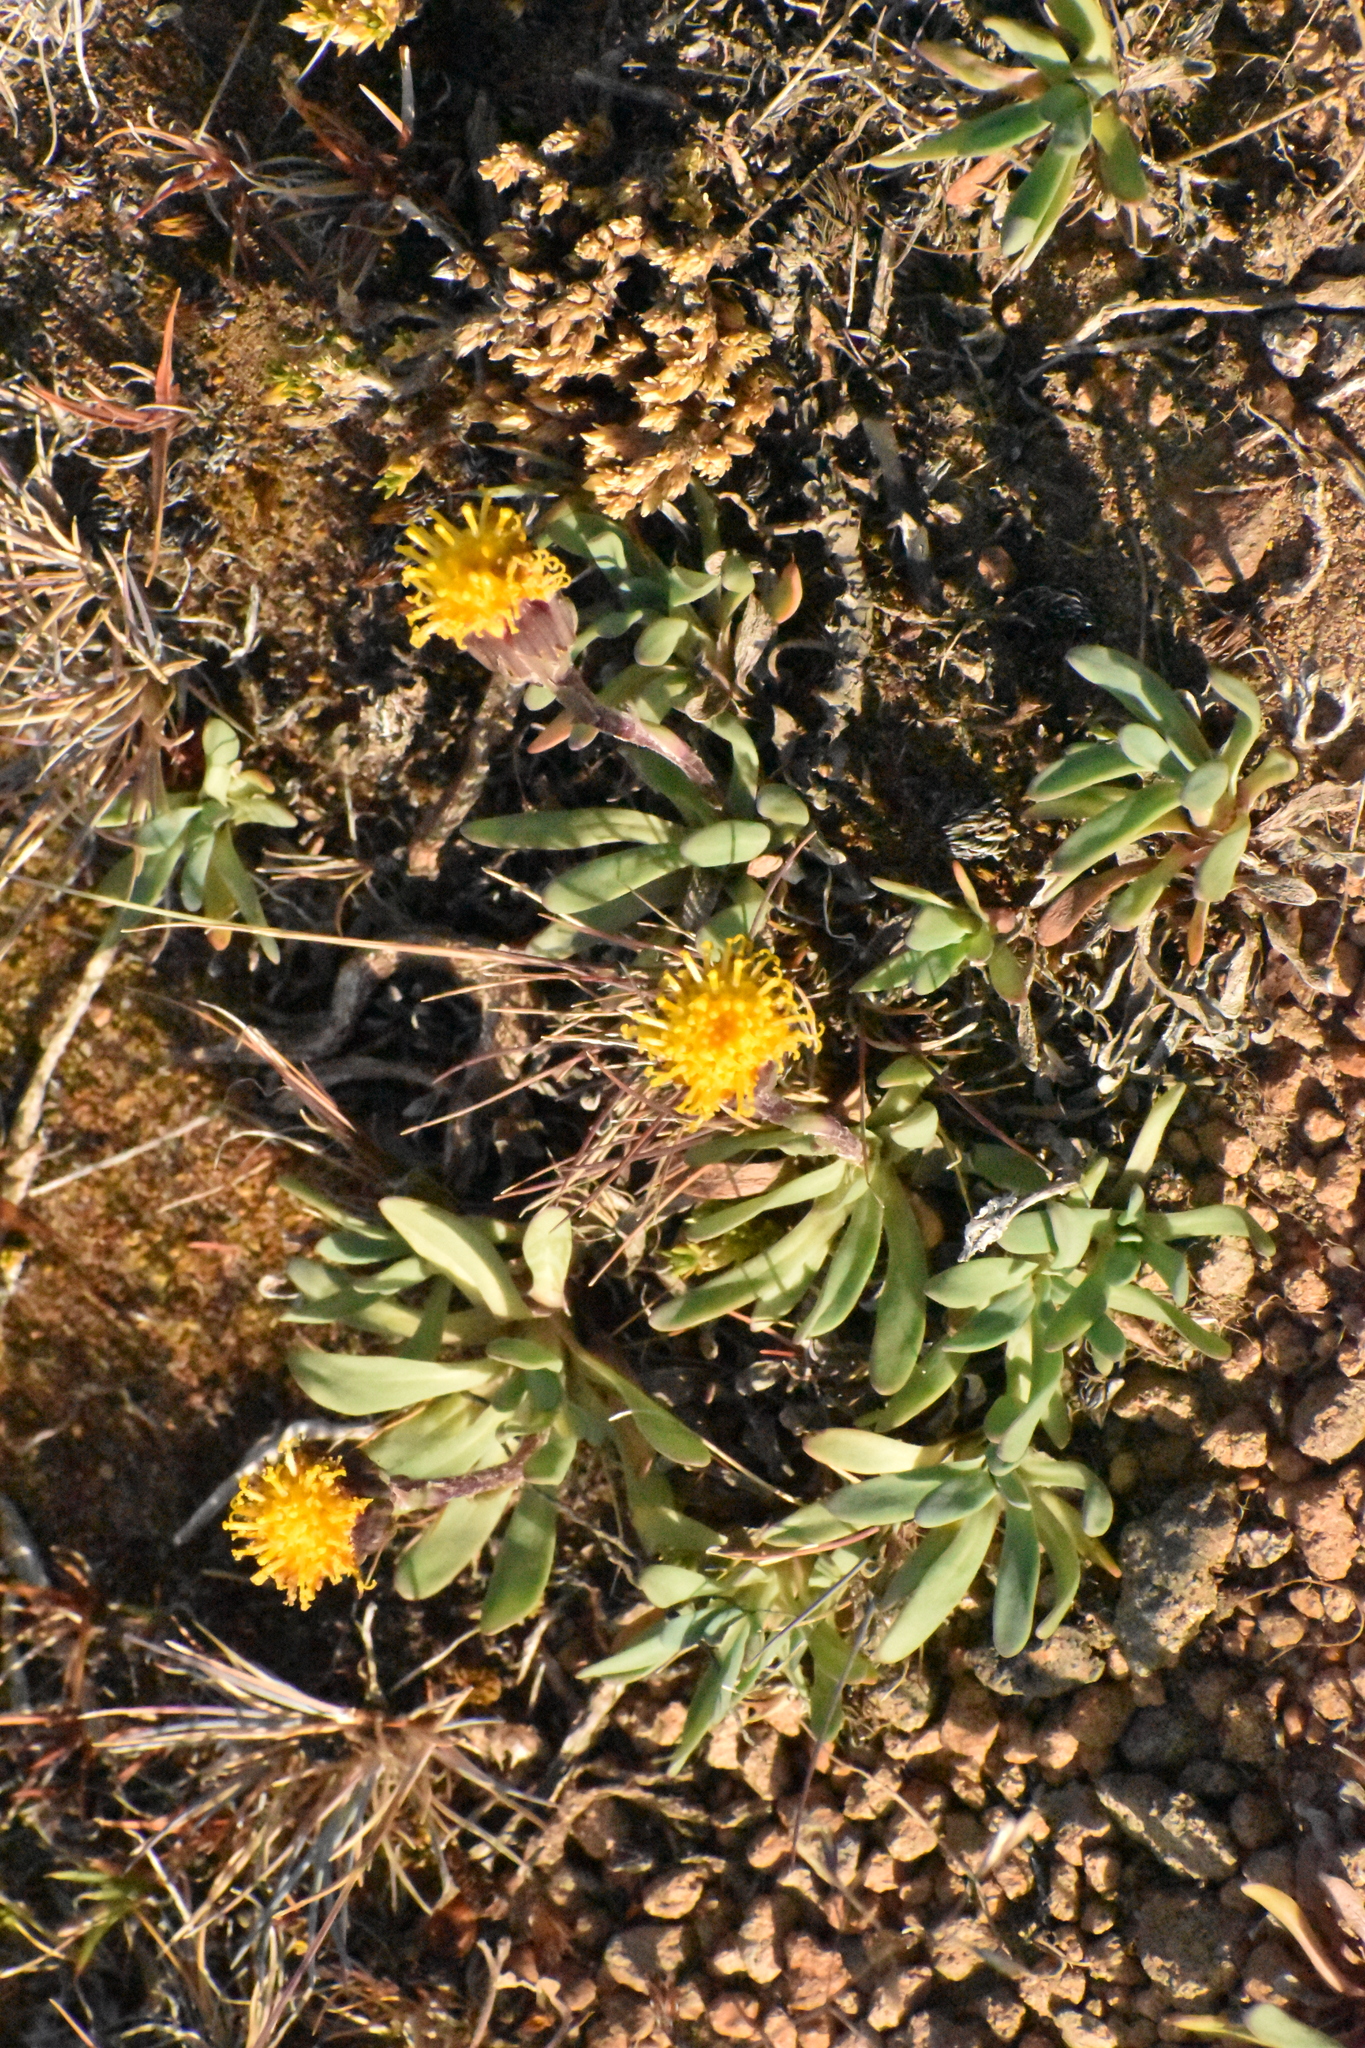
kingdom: Plantae
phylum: Tracheophyta
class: Magnoliopsida
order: Asterales
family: Asteraceae
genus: Senecio
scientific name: Senecio martinensis
